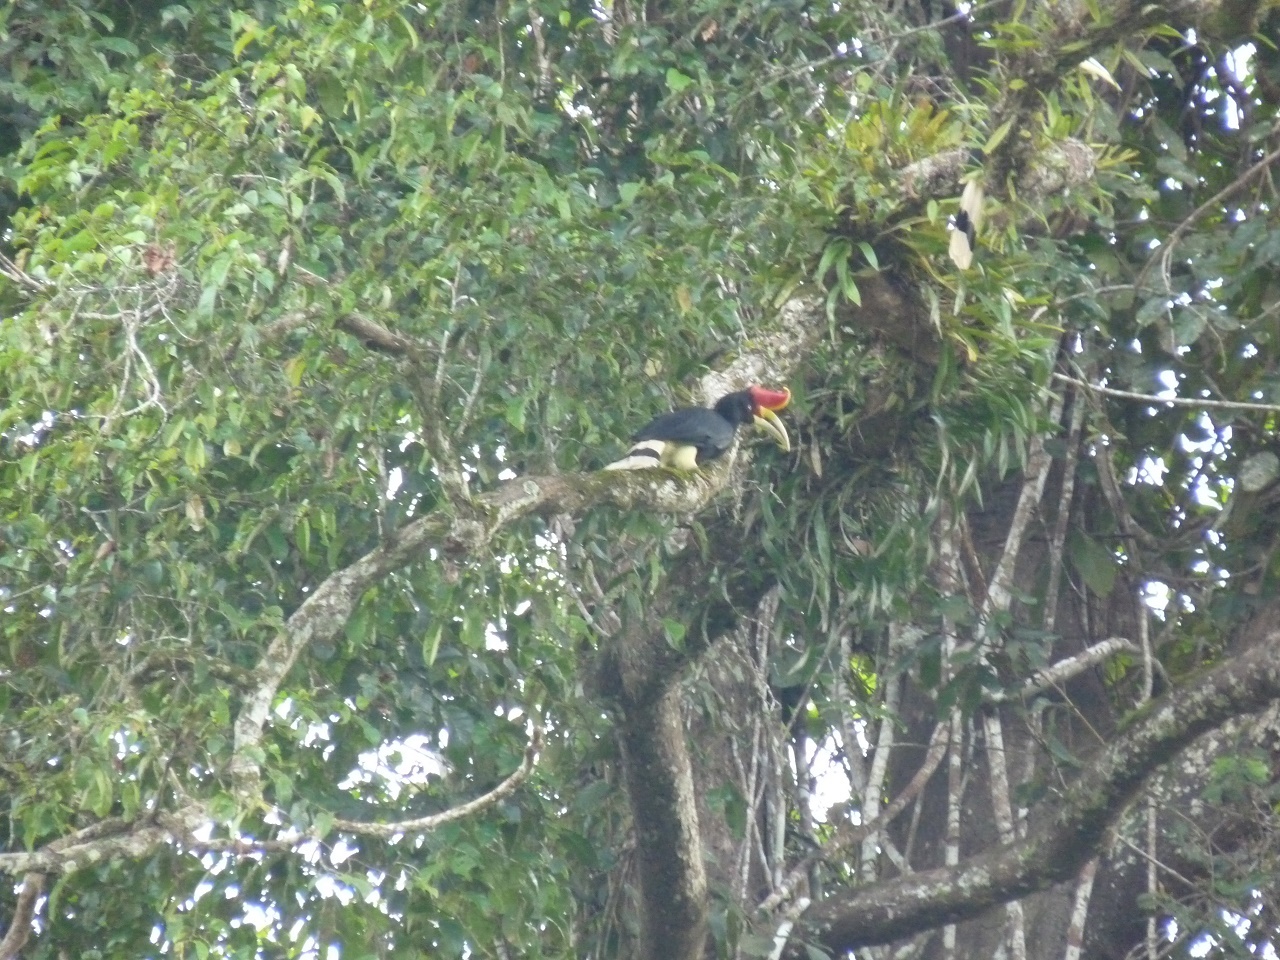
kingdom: Animalia
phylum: Chordata
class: Aves
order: Bucerotiformes
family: Bucerotidae
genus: Buceros
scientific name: Buceros rhinoceros
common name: Rhinoceros hornbill
